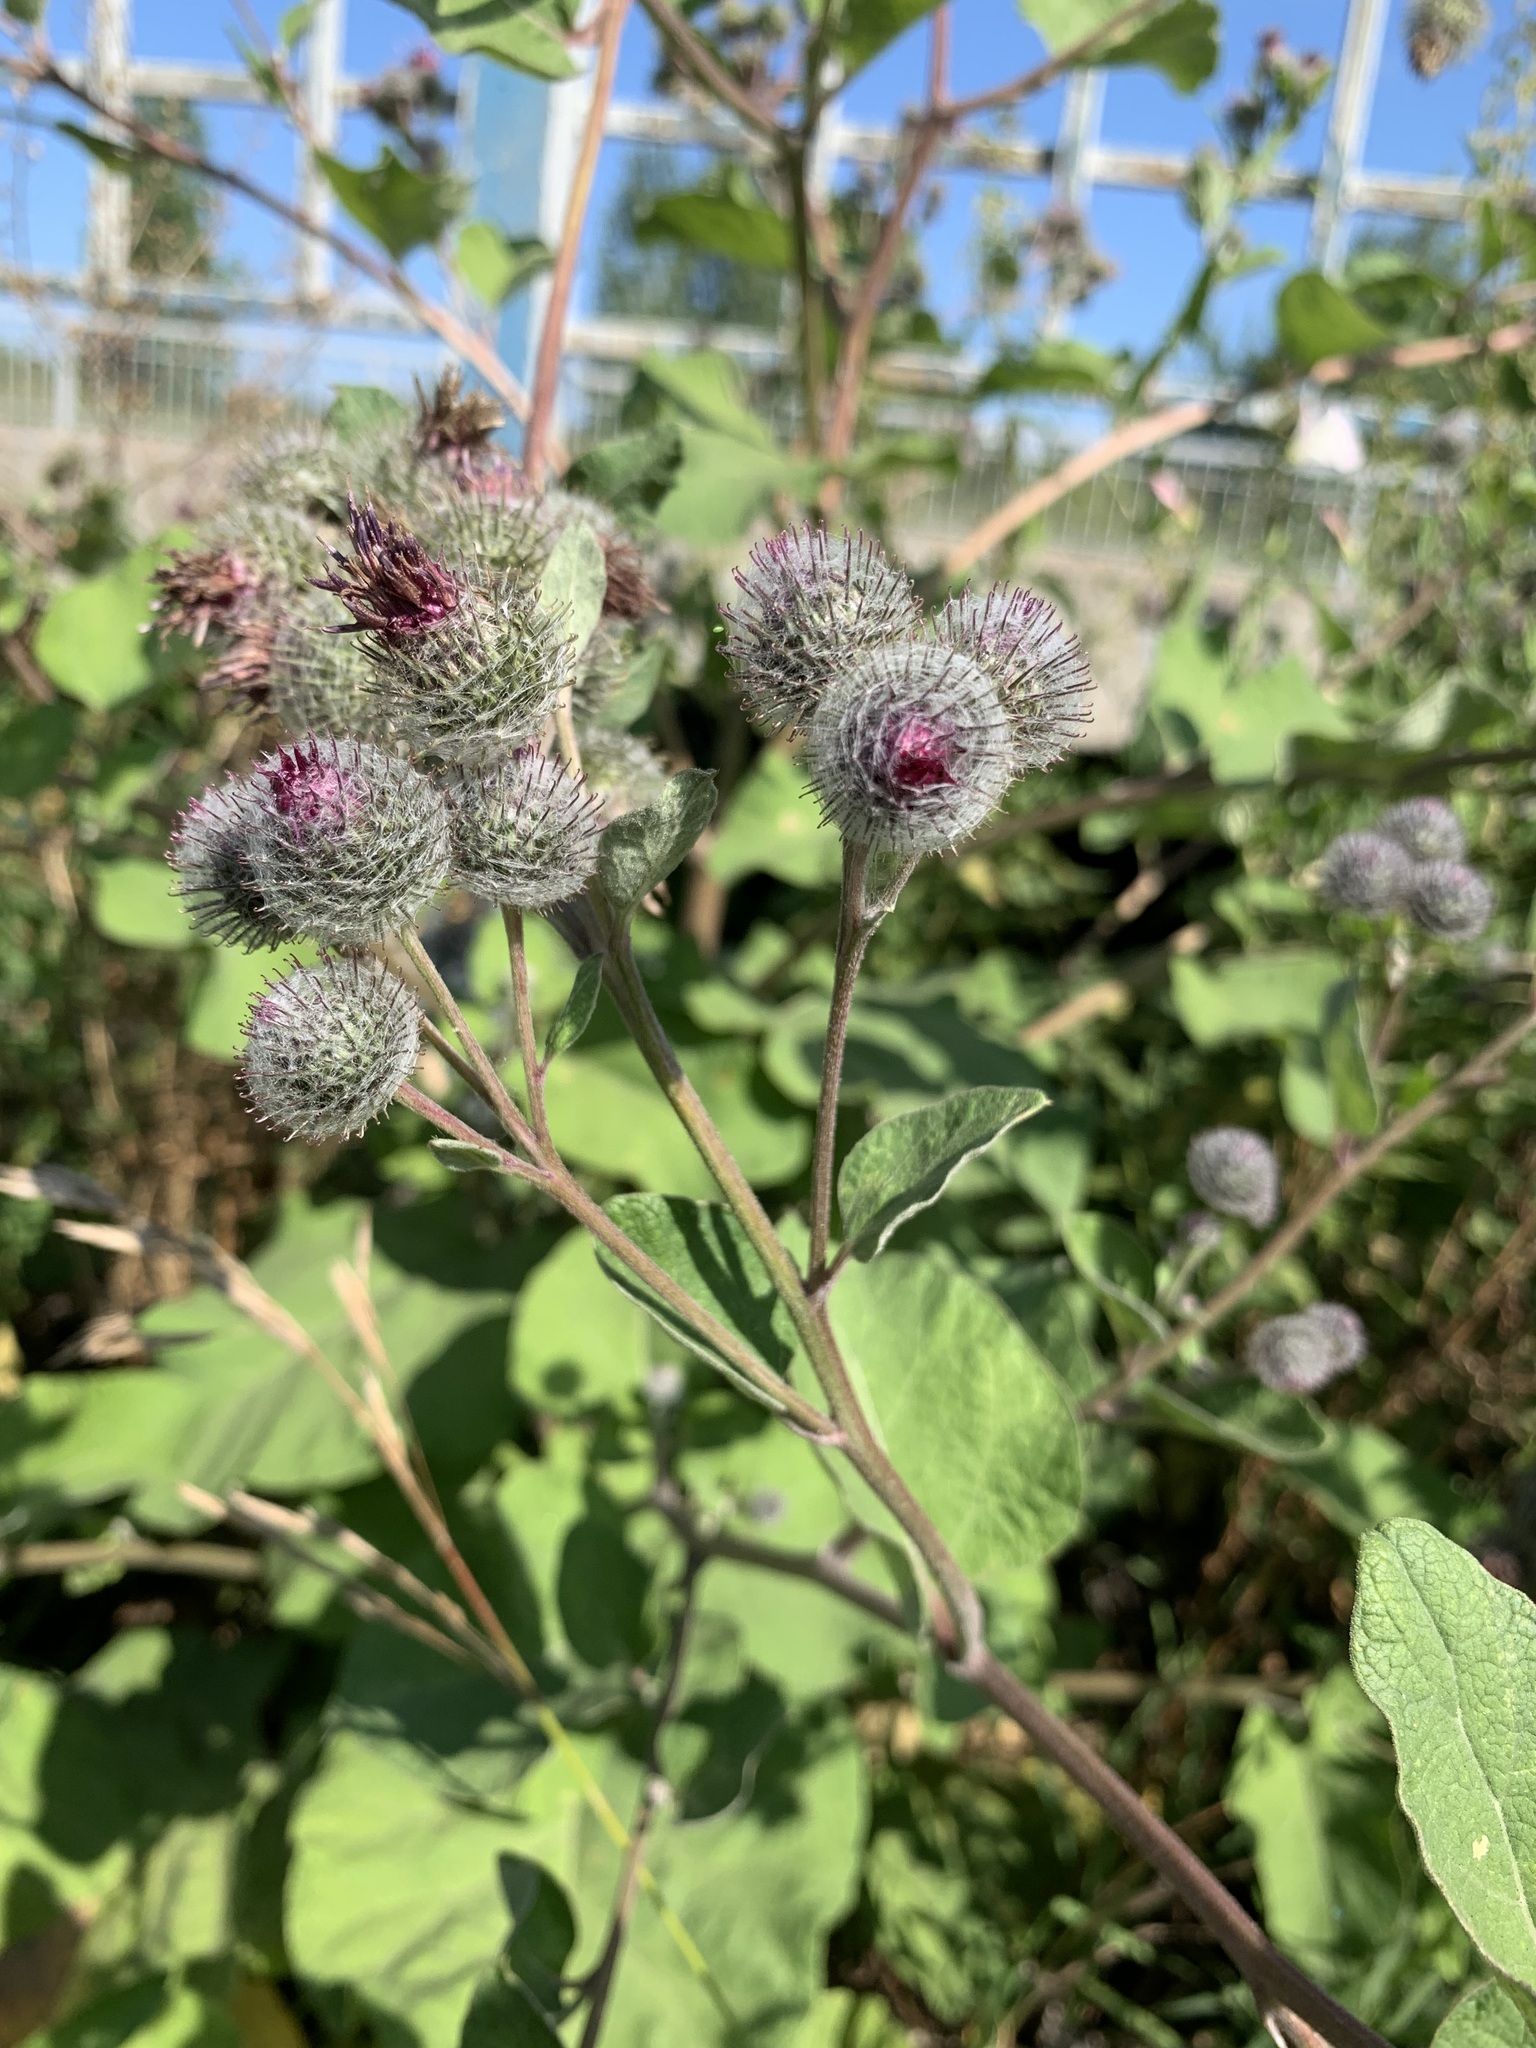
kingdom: Plantae
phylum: Tracheophyta
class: Magnoliopsida
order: Asterales
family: Asteraceae
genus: Arctium
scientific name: Arctium tomentosum
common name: Woolly burdock
